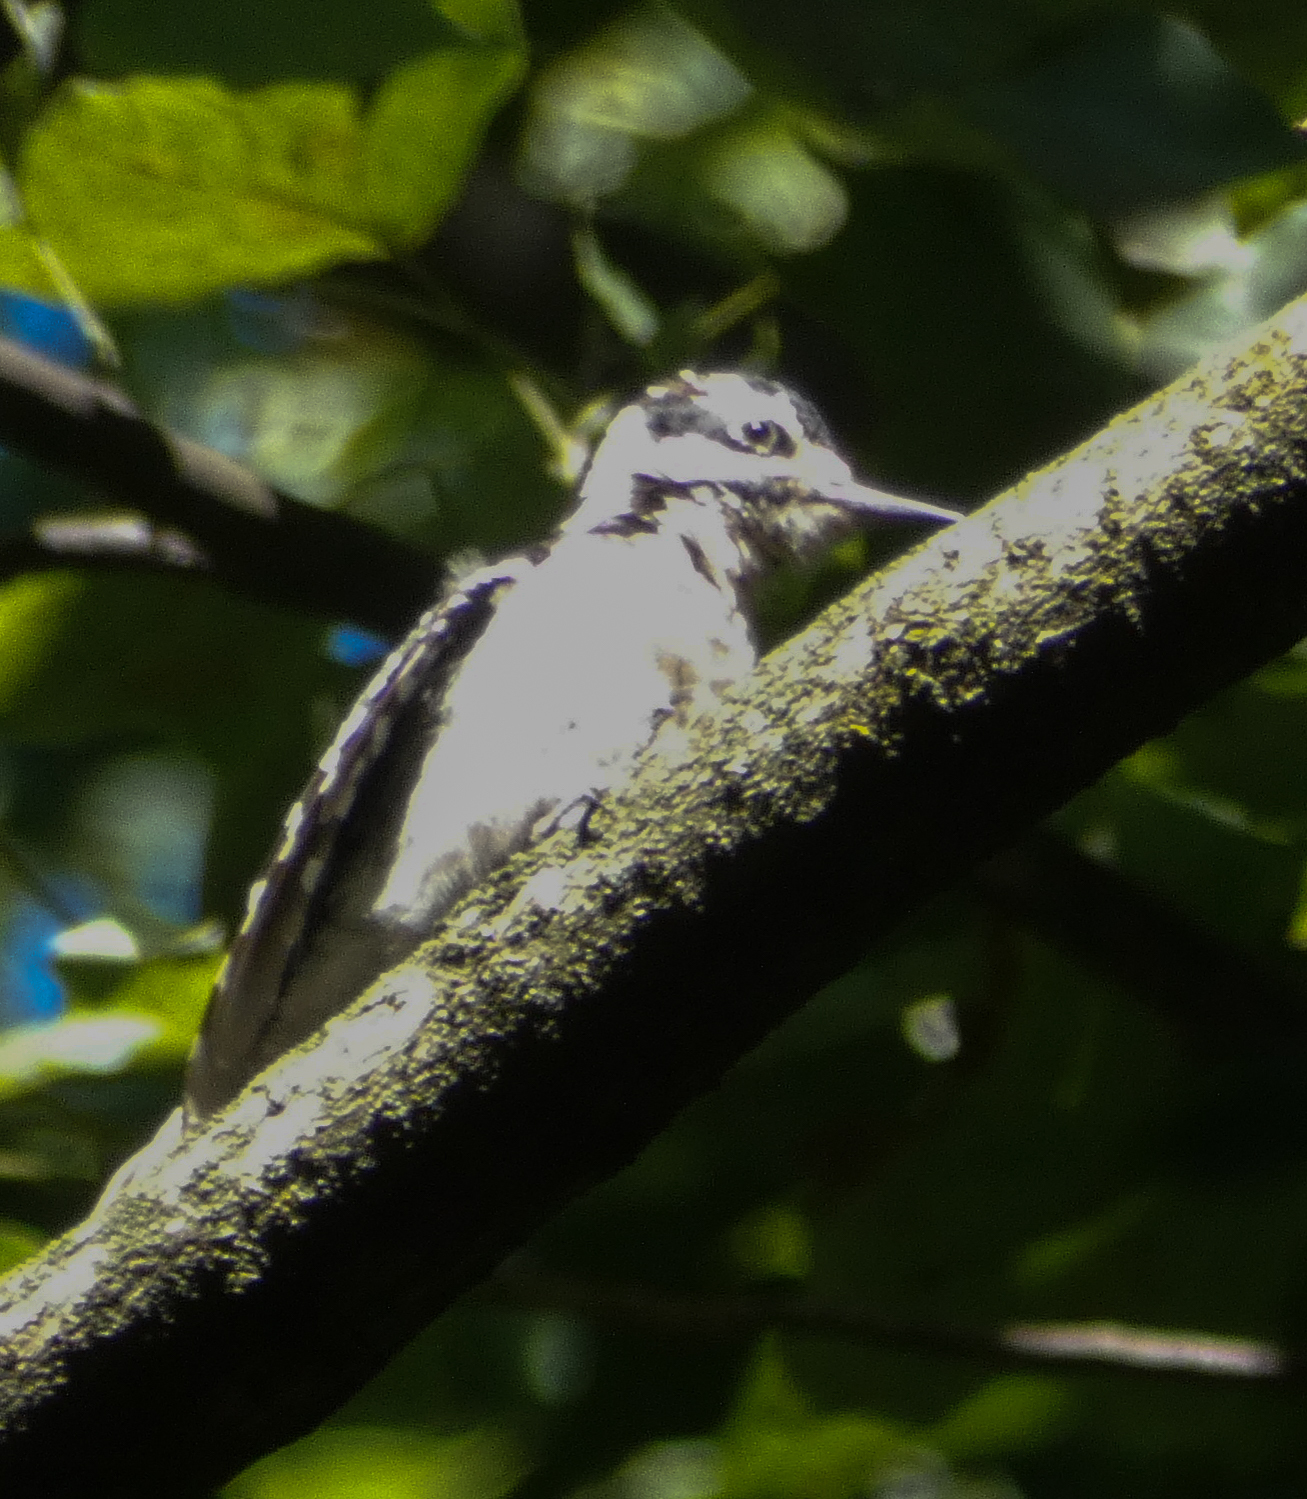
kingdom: Animalia
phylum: Chordata
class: Aves
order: Piciformes
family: Picidae
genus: Leuconotopicus
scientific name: Leuconotopicus villosus
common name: Hairy woodpecker
